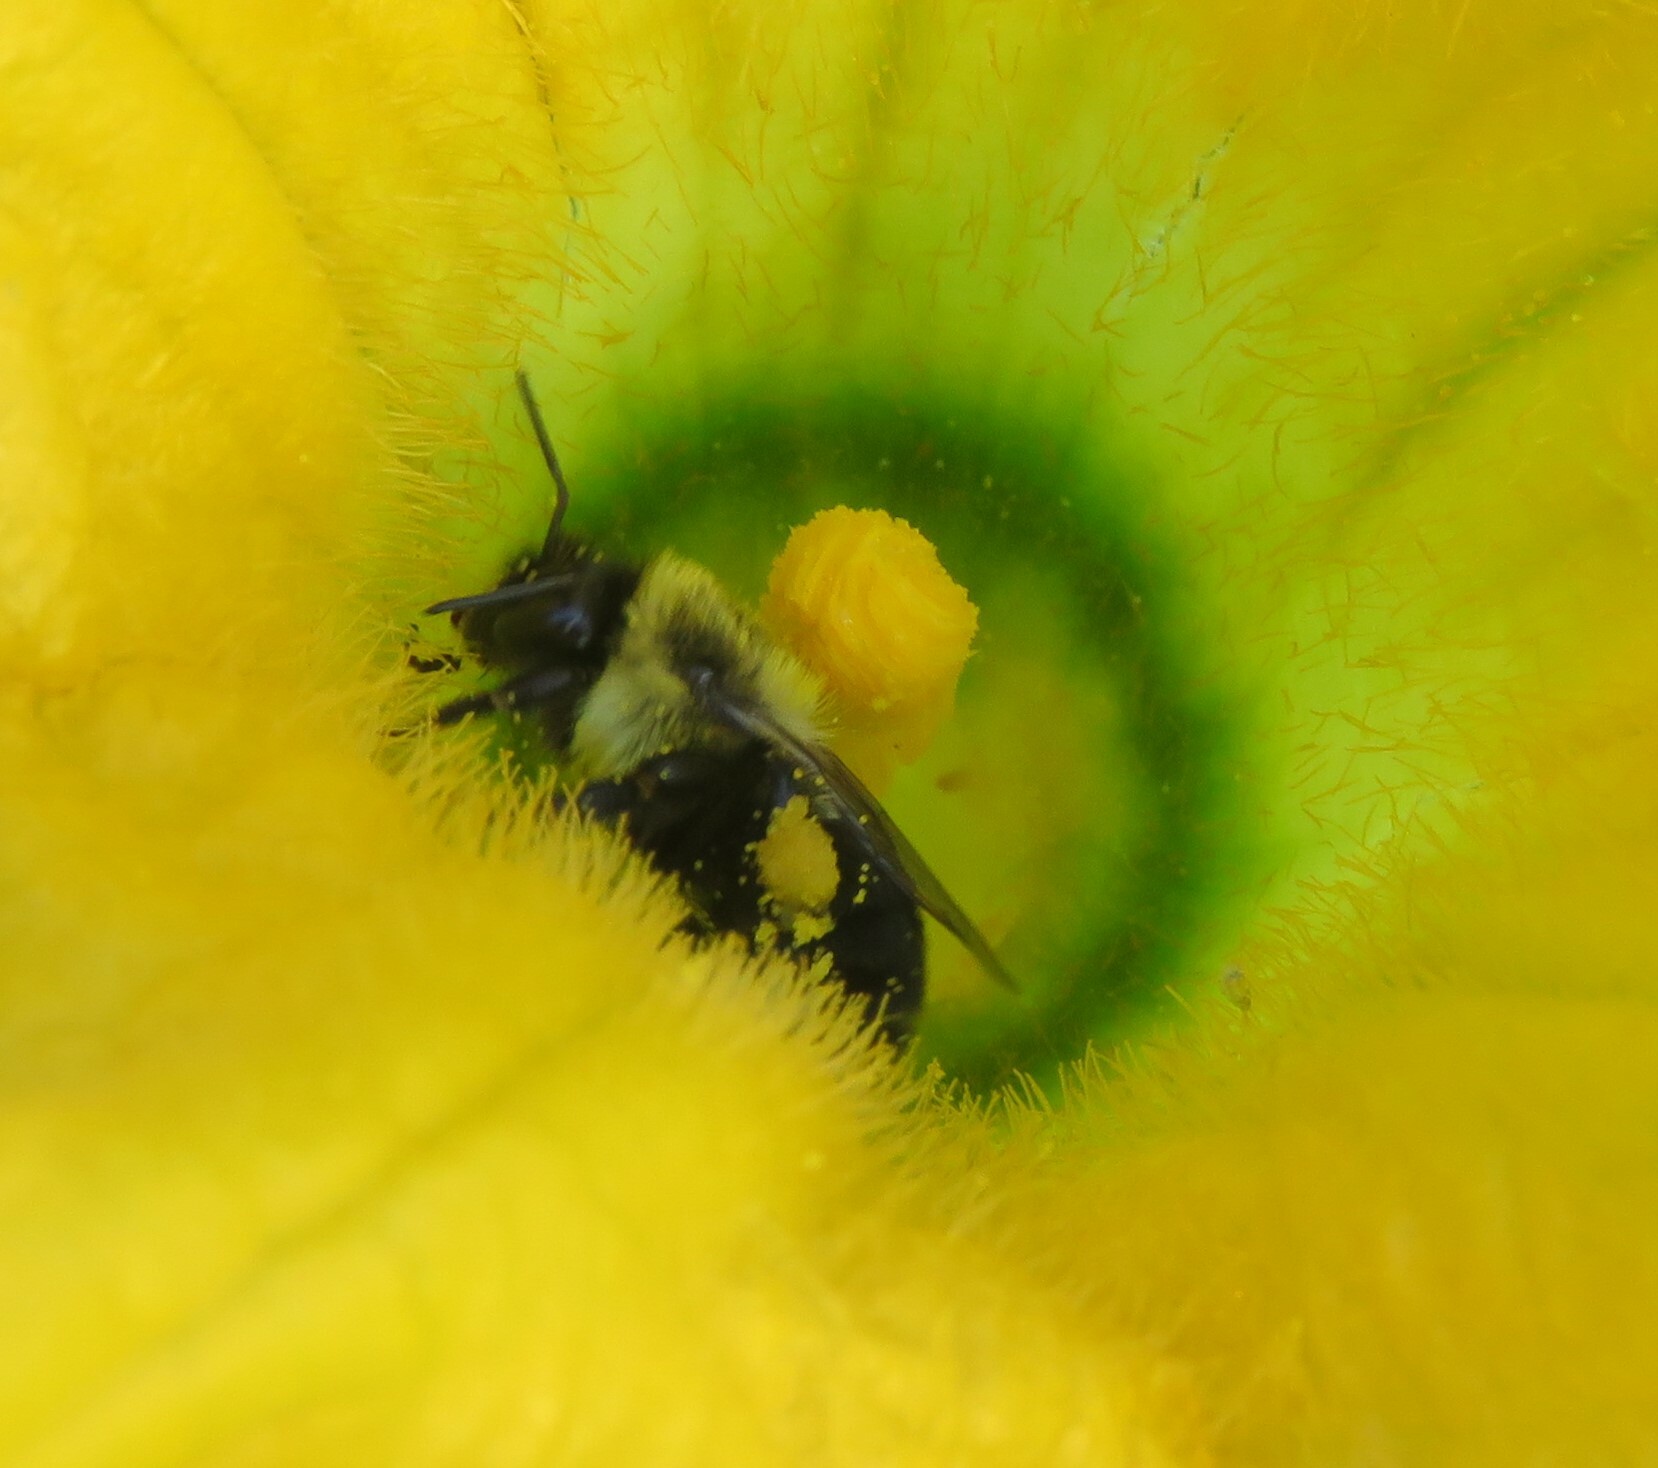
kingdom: Animalia
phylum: Arthropoda
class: Insecta
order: Hymenoptera
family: Apidae
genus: Bombus
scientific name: Bombus impatiens
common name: Common eastern bumble bee
